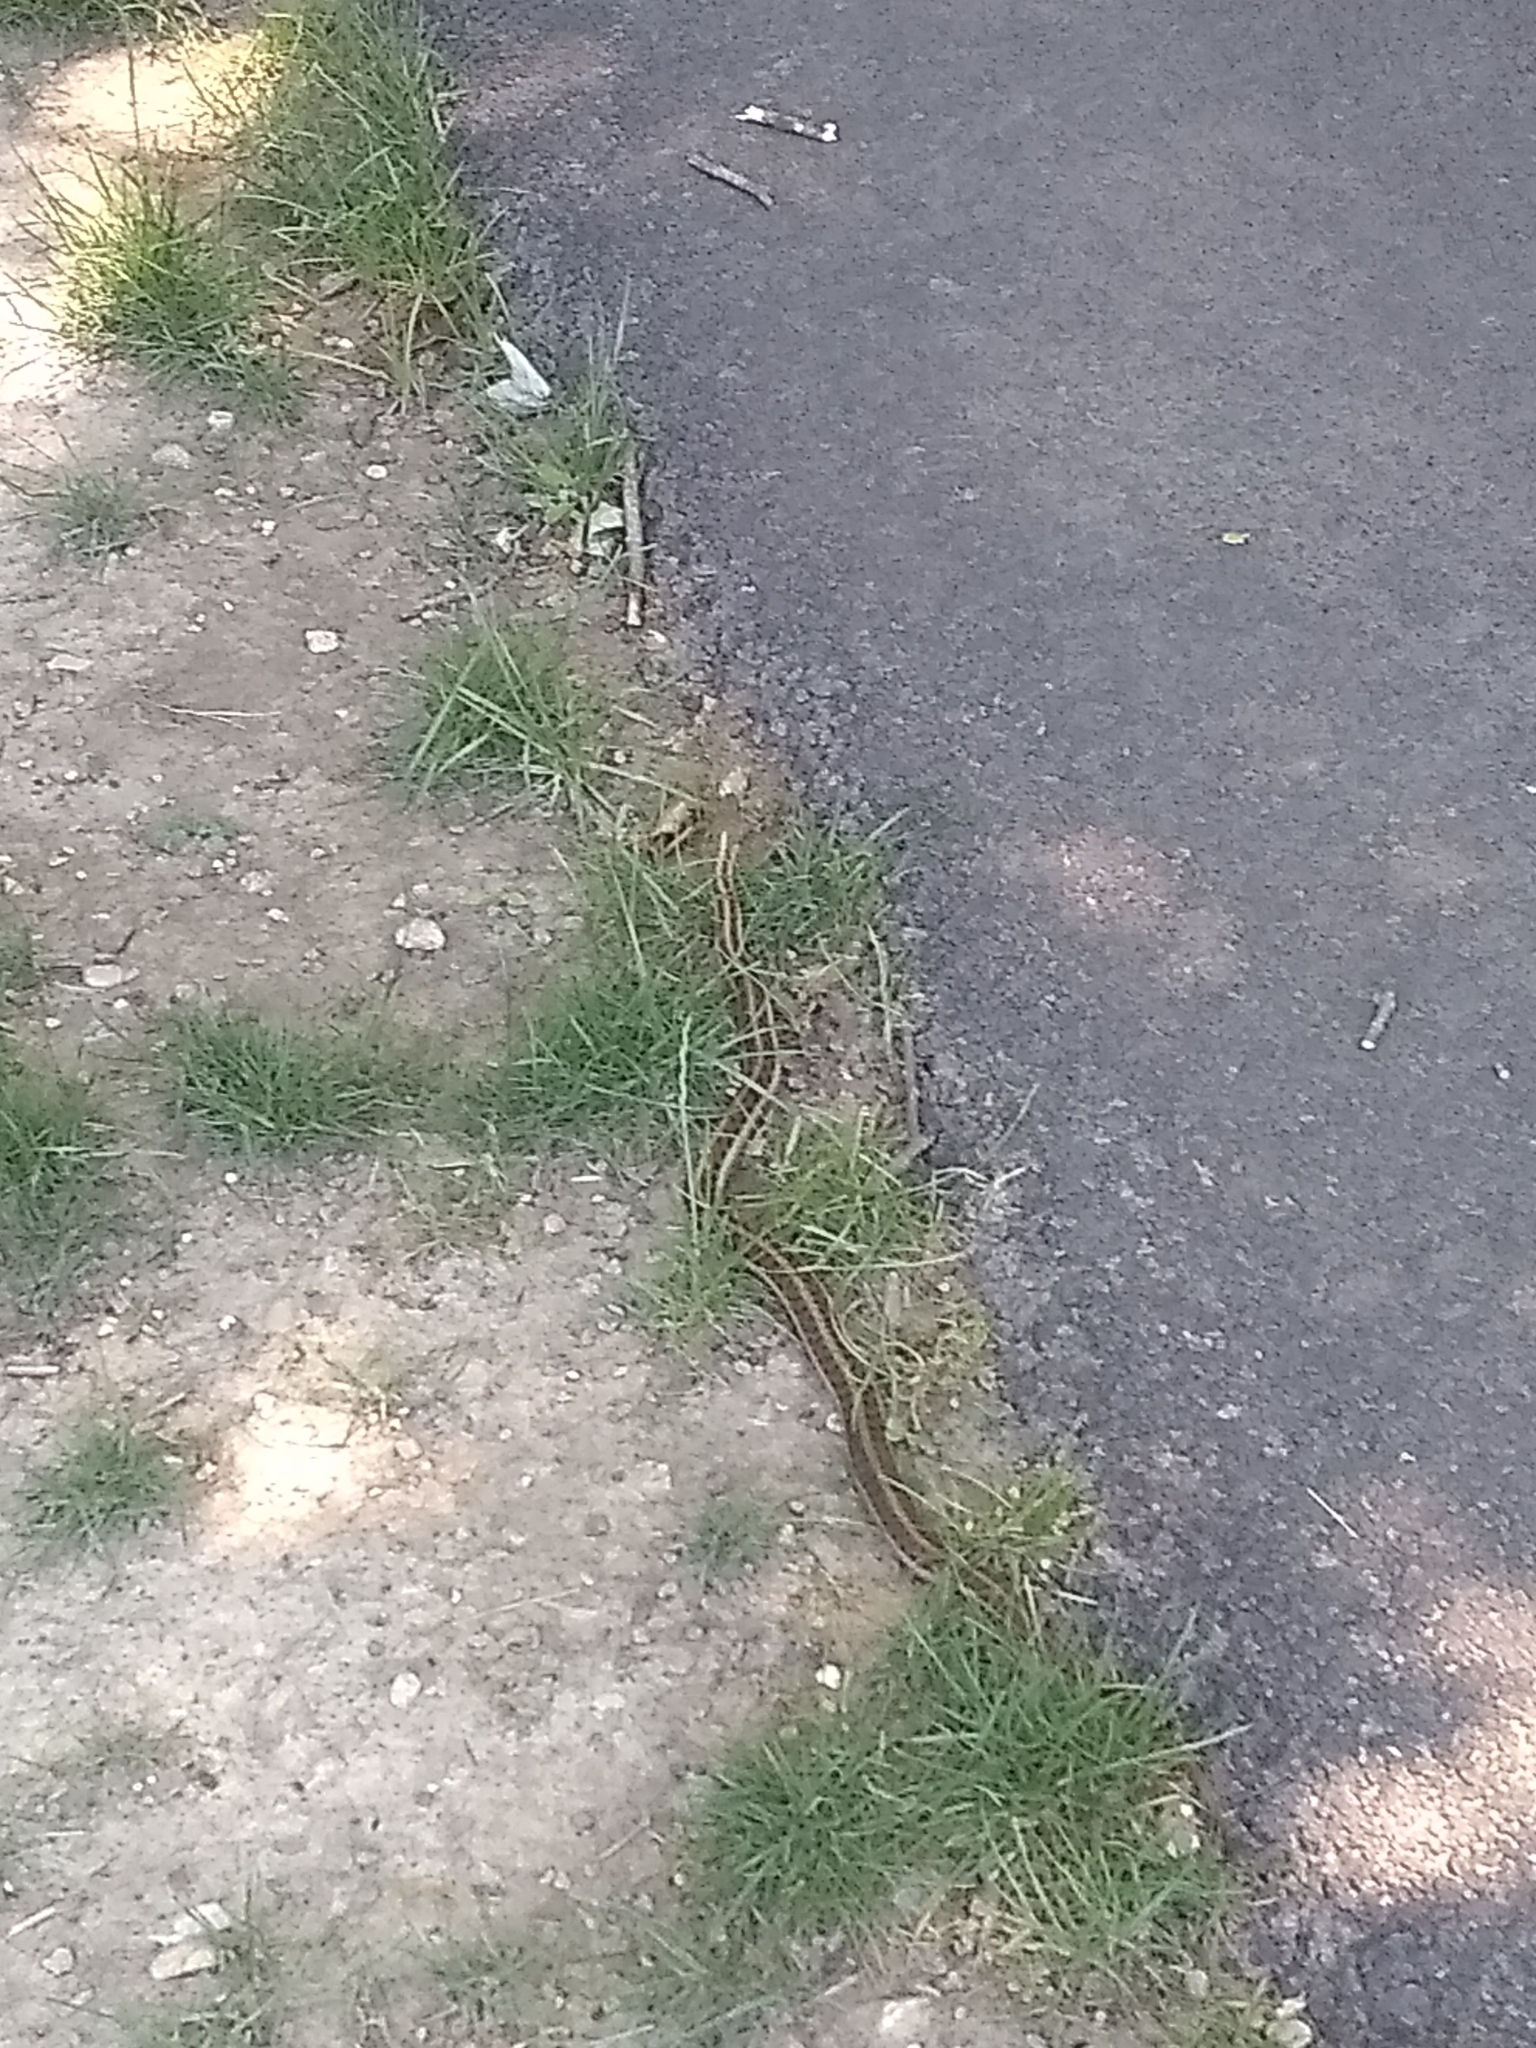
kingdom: Animalia
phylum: Chordata
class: Squamata
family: Colubridae
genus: Thamnophis
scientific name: Thamnophis sirtalis
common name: Common garter snake
